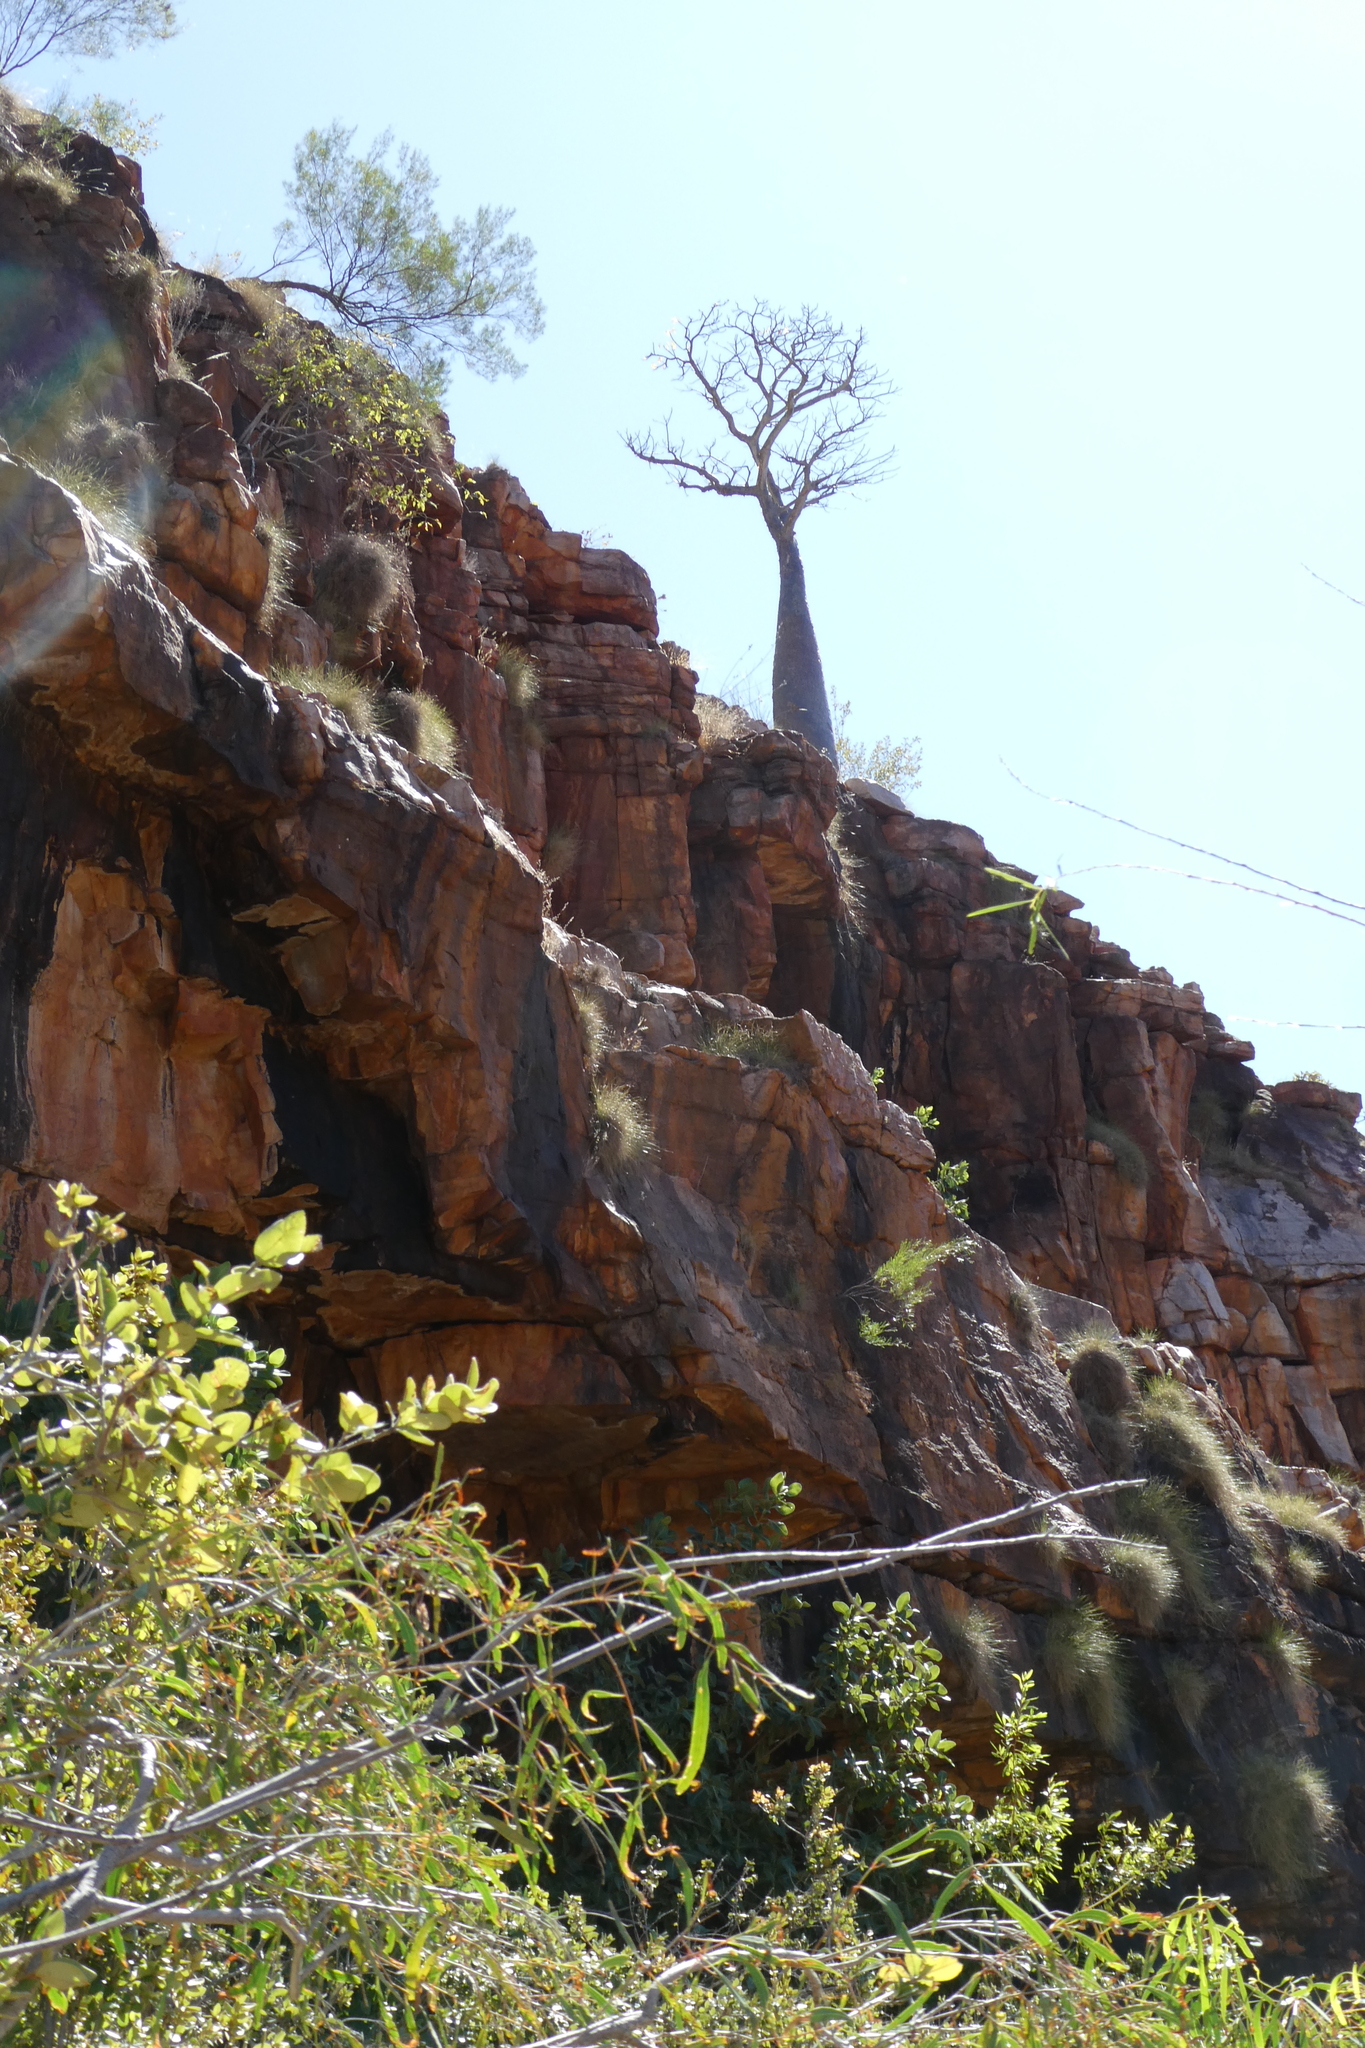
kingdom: Plantae
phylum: Tracheophyta
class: Magnoliopsida
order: Malvales
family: Malvaceae
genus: Adansonia
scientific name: Adansonia gregorii
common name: Australian baobab
